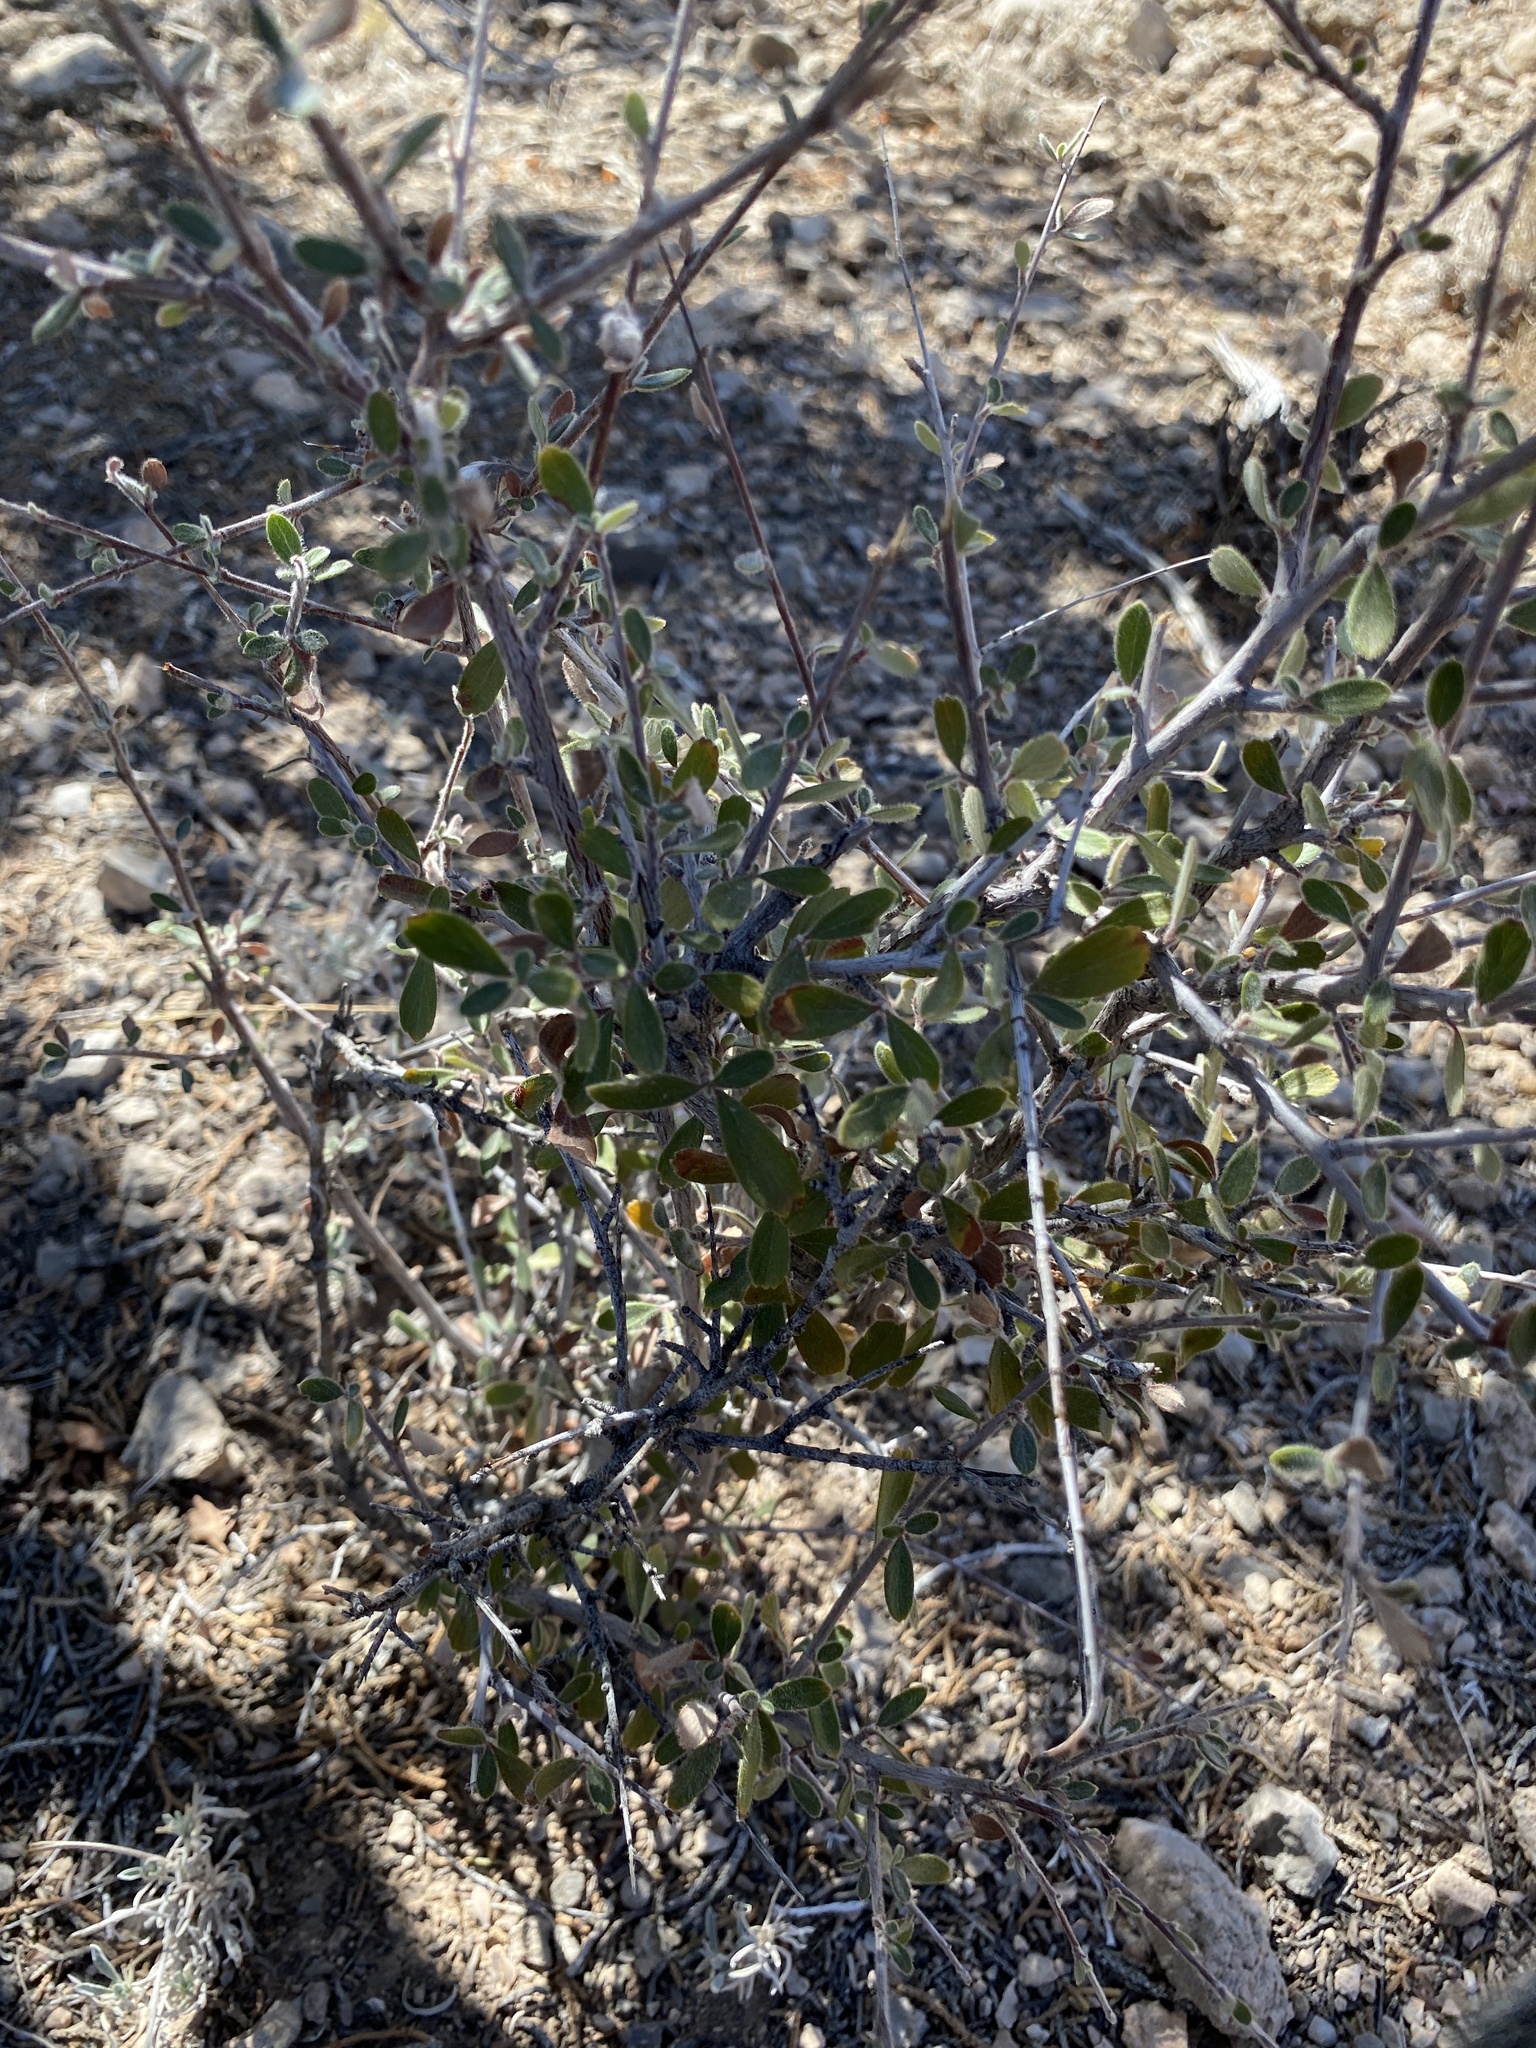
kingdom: Plantae
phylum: Tracheophyta
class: Magnoliopsida
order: Rosales
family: Rosaceae
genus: Cercocarpus
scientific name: Cercocarpus breviflorus
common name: Wright's mountain-mahogany
